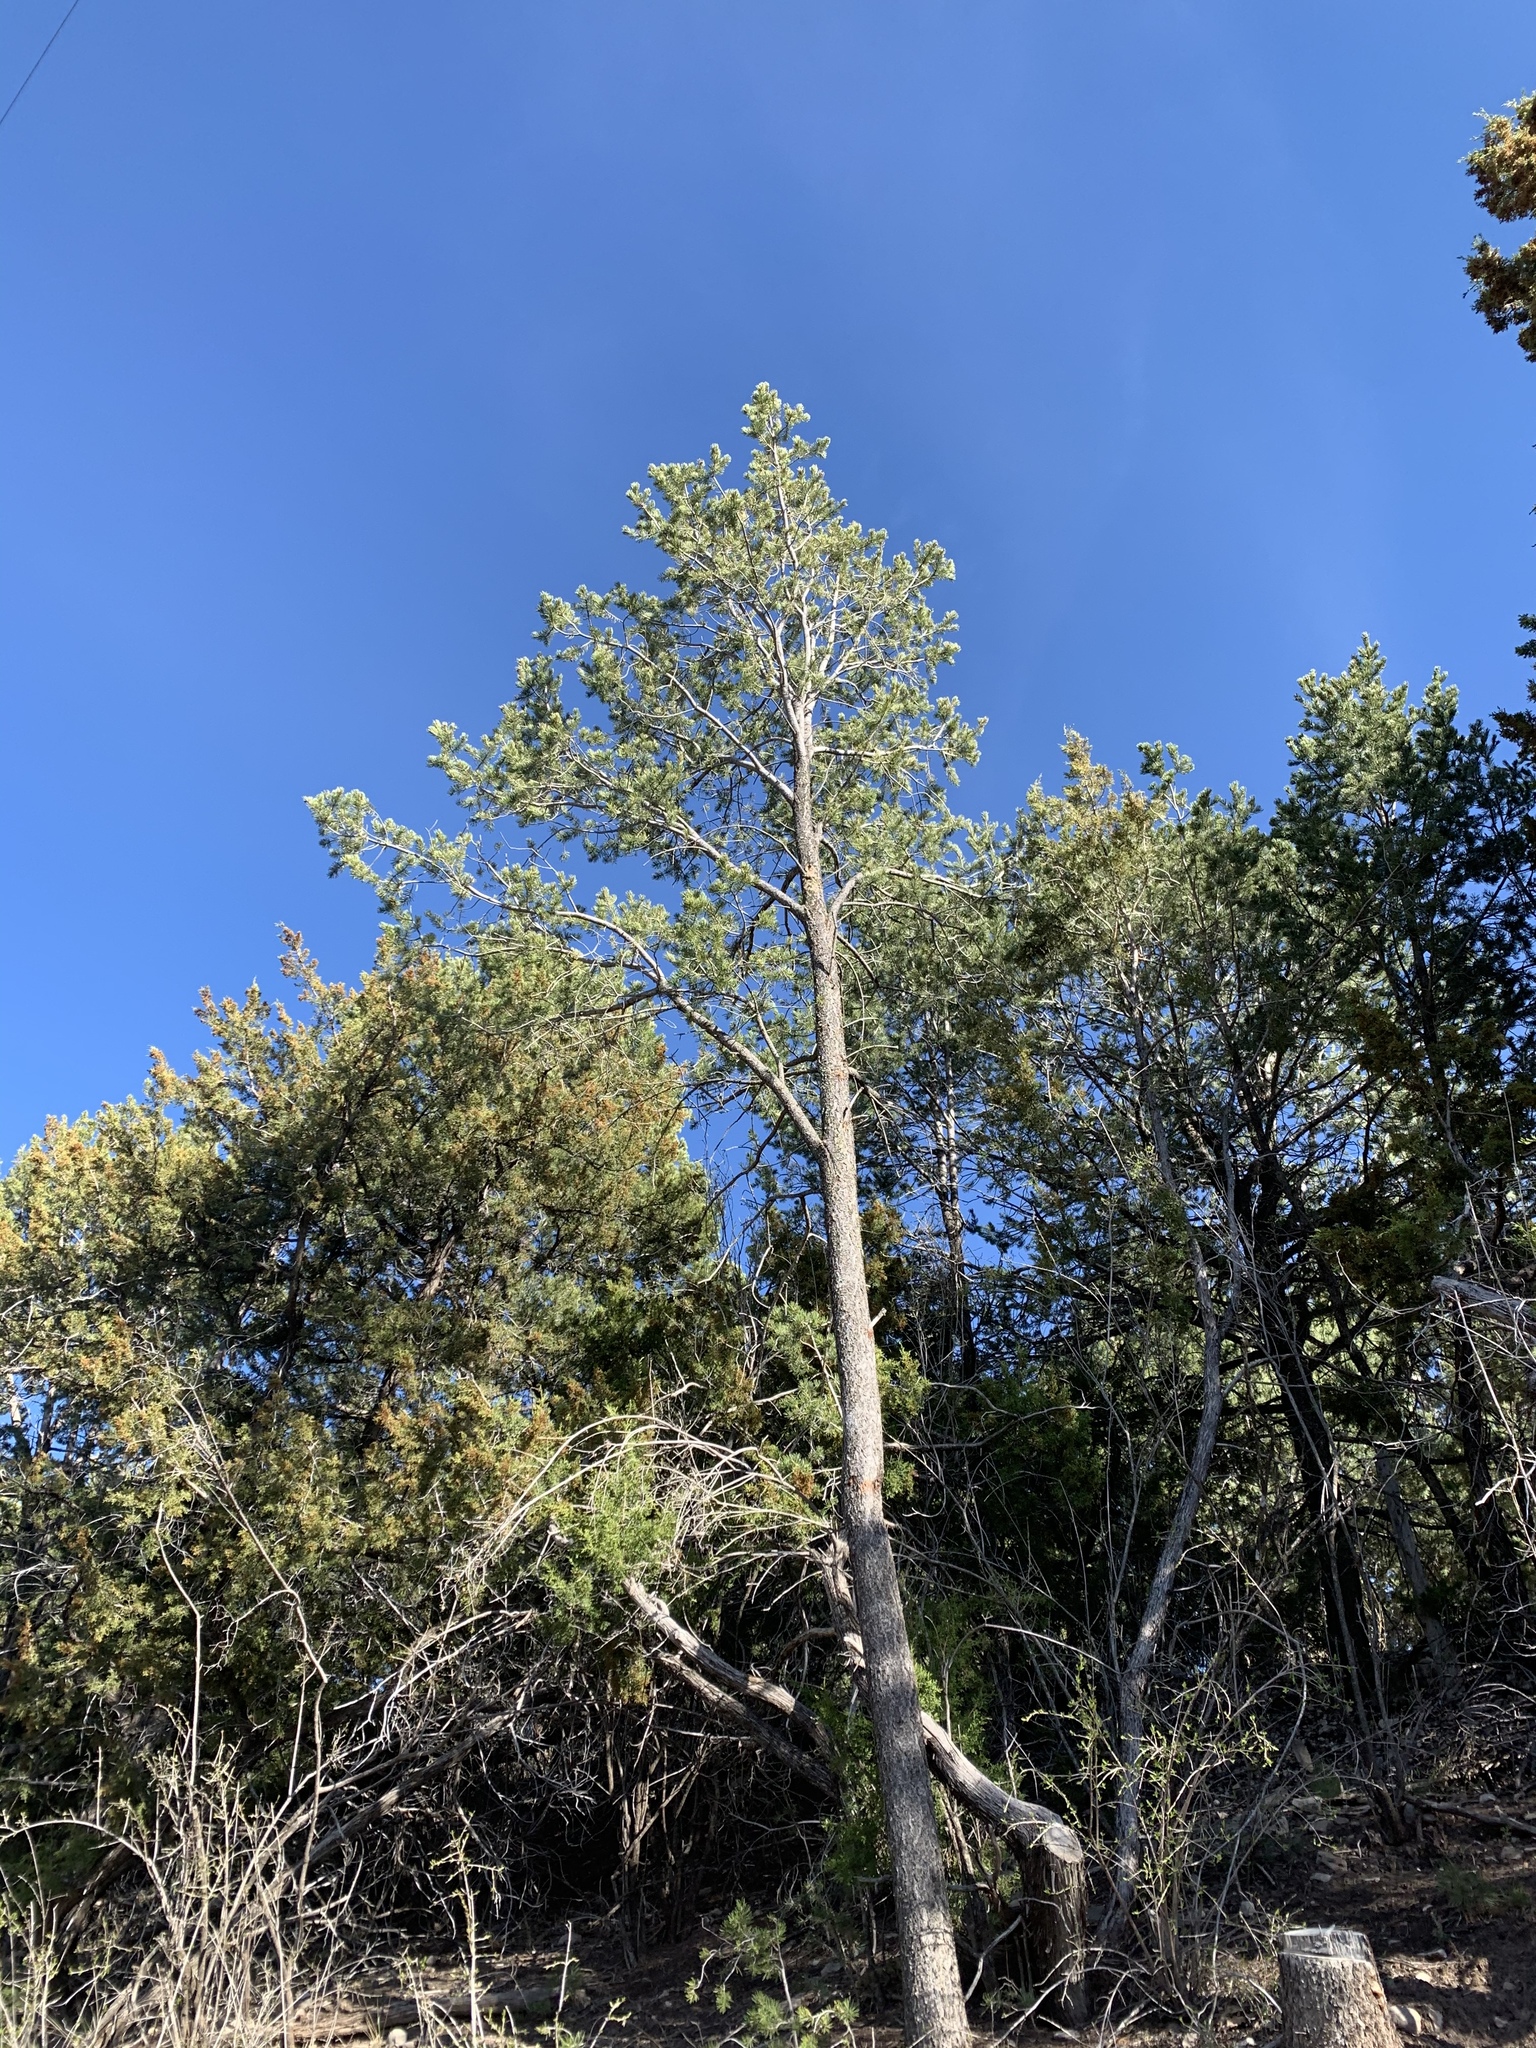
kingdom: Plantae
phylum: Tracheophyta
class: Pinopsida
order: Pinales
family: Pinaceae
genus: Pinus
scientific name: Pinus edulis
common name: Colorado pinyon
